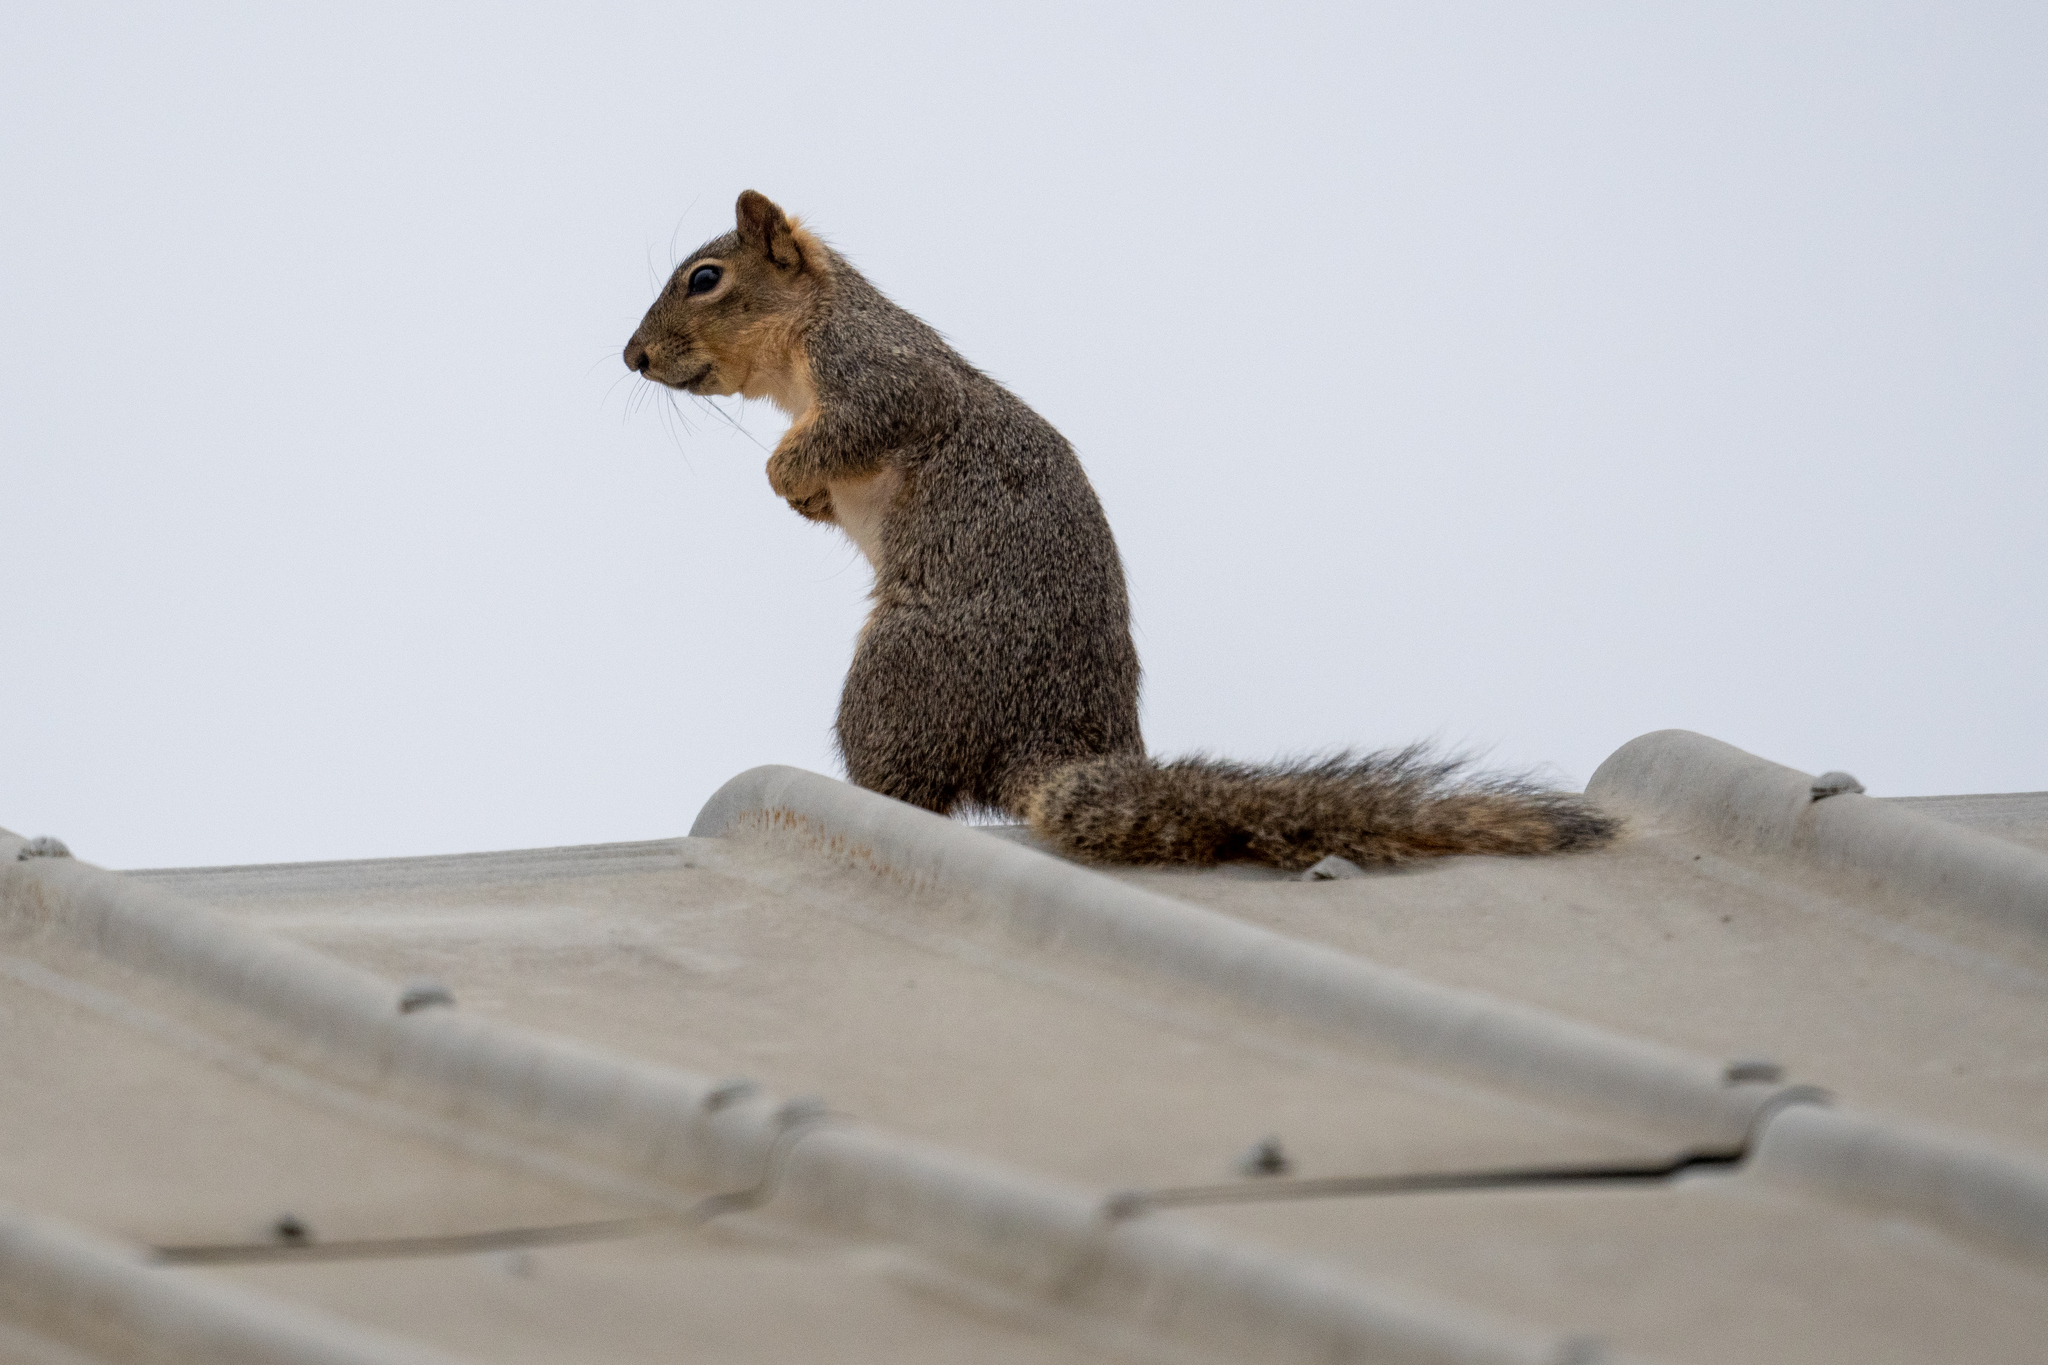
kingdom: Animalia
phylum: Chordata
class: Mammalia
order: Rodentia
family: Sciuridae
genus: Sciurus
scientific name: Sciurus niger
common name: Fox squirrel
